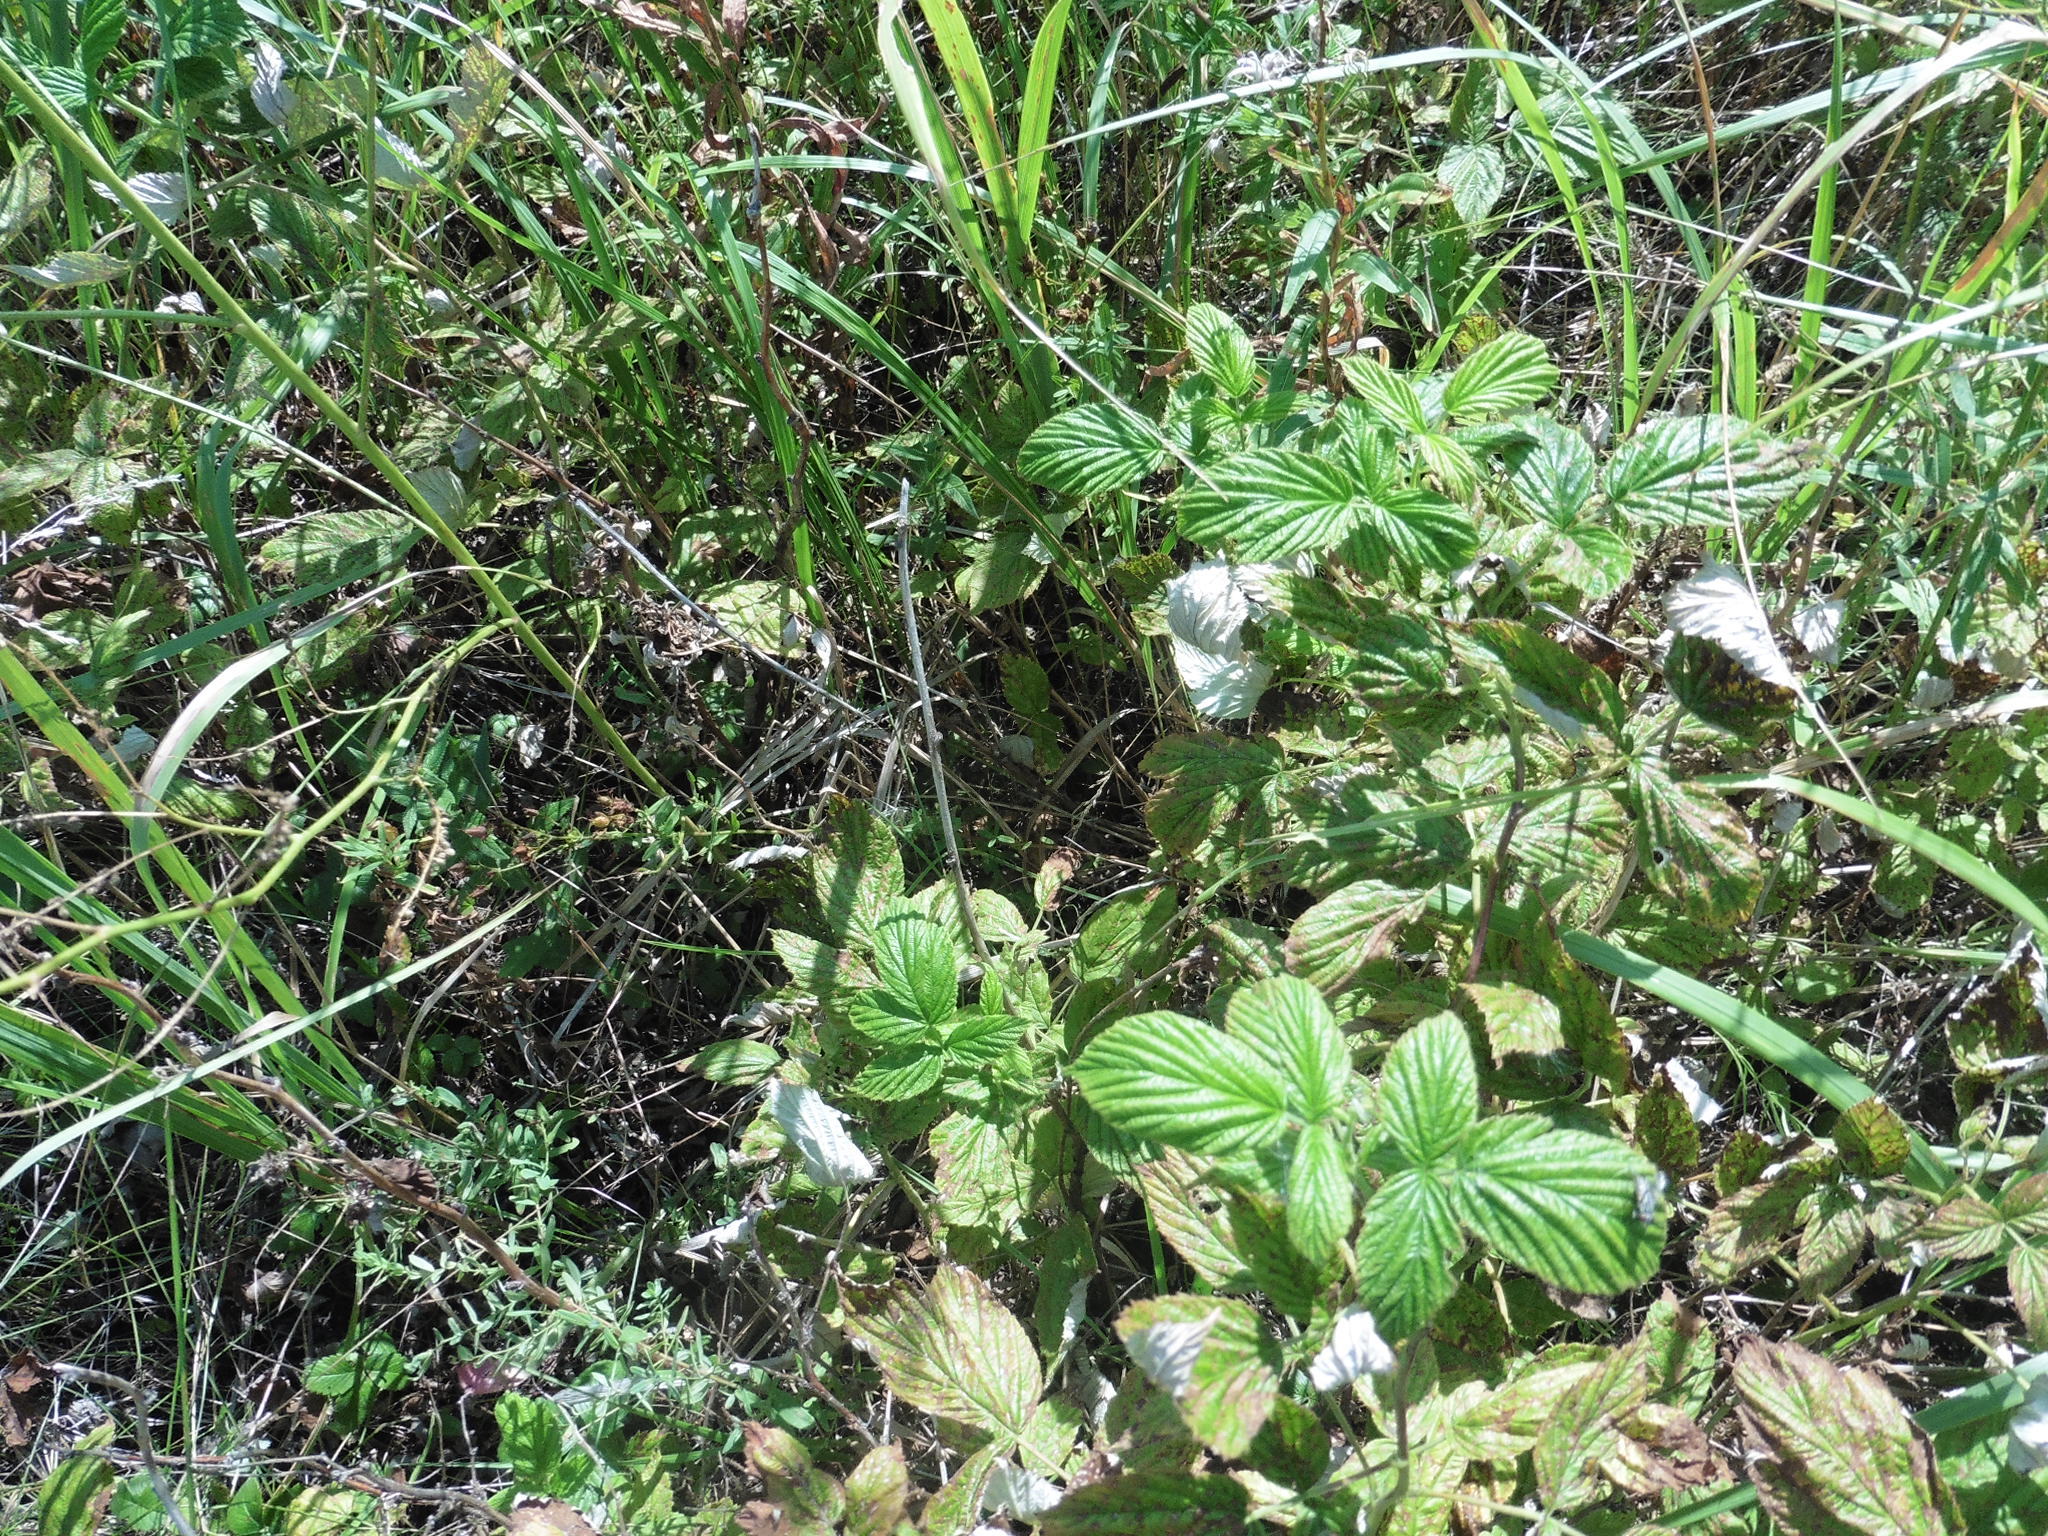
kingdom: Plantae
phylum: Tracheophyta
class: Magnoliopsida
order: Rosales
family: Rosaceae
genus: Rubus
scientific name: Rubus idaeus
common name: Raspberry
